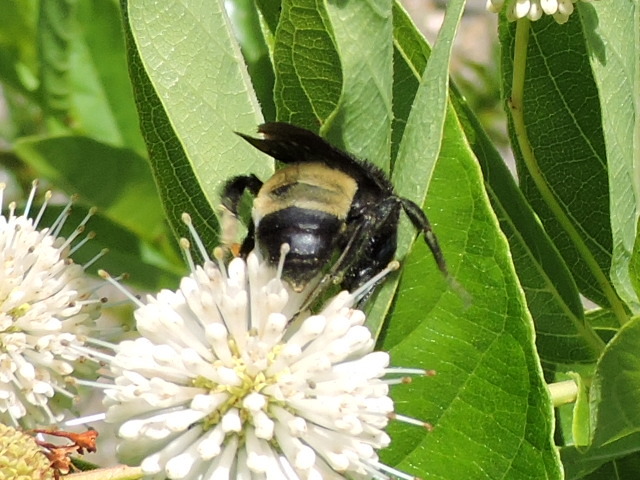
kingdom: Animalia
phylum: Arthropoda
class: Insecta
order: Hymenoptera
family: Apidae
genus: Bombus
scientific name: Bombus pensylvanicus
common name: Bumble bee
